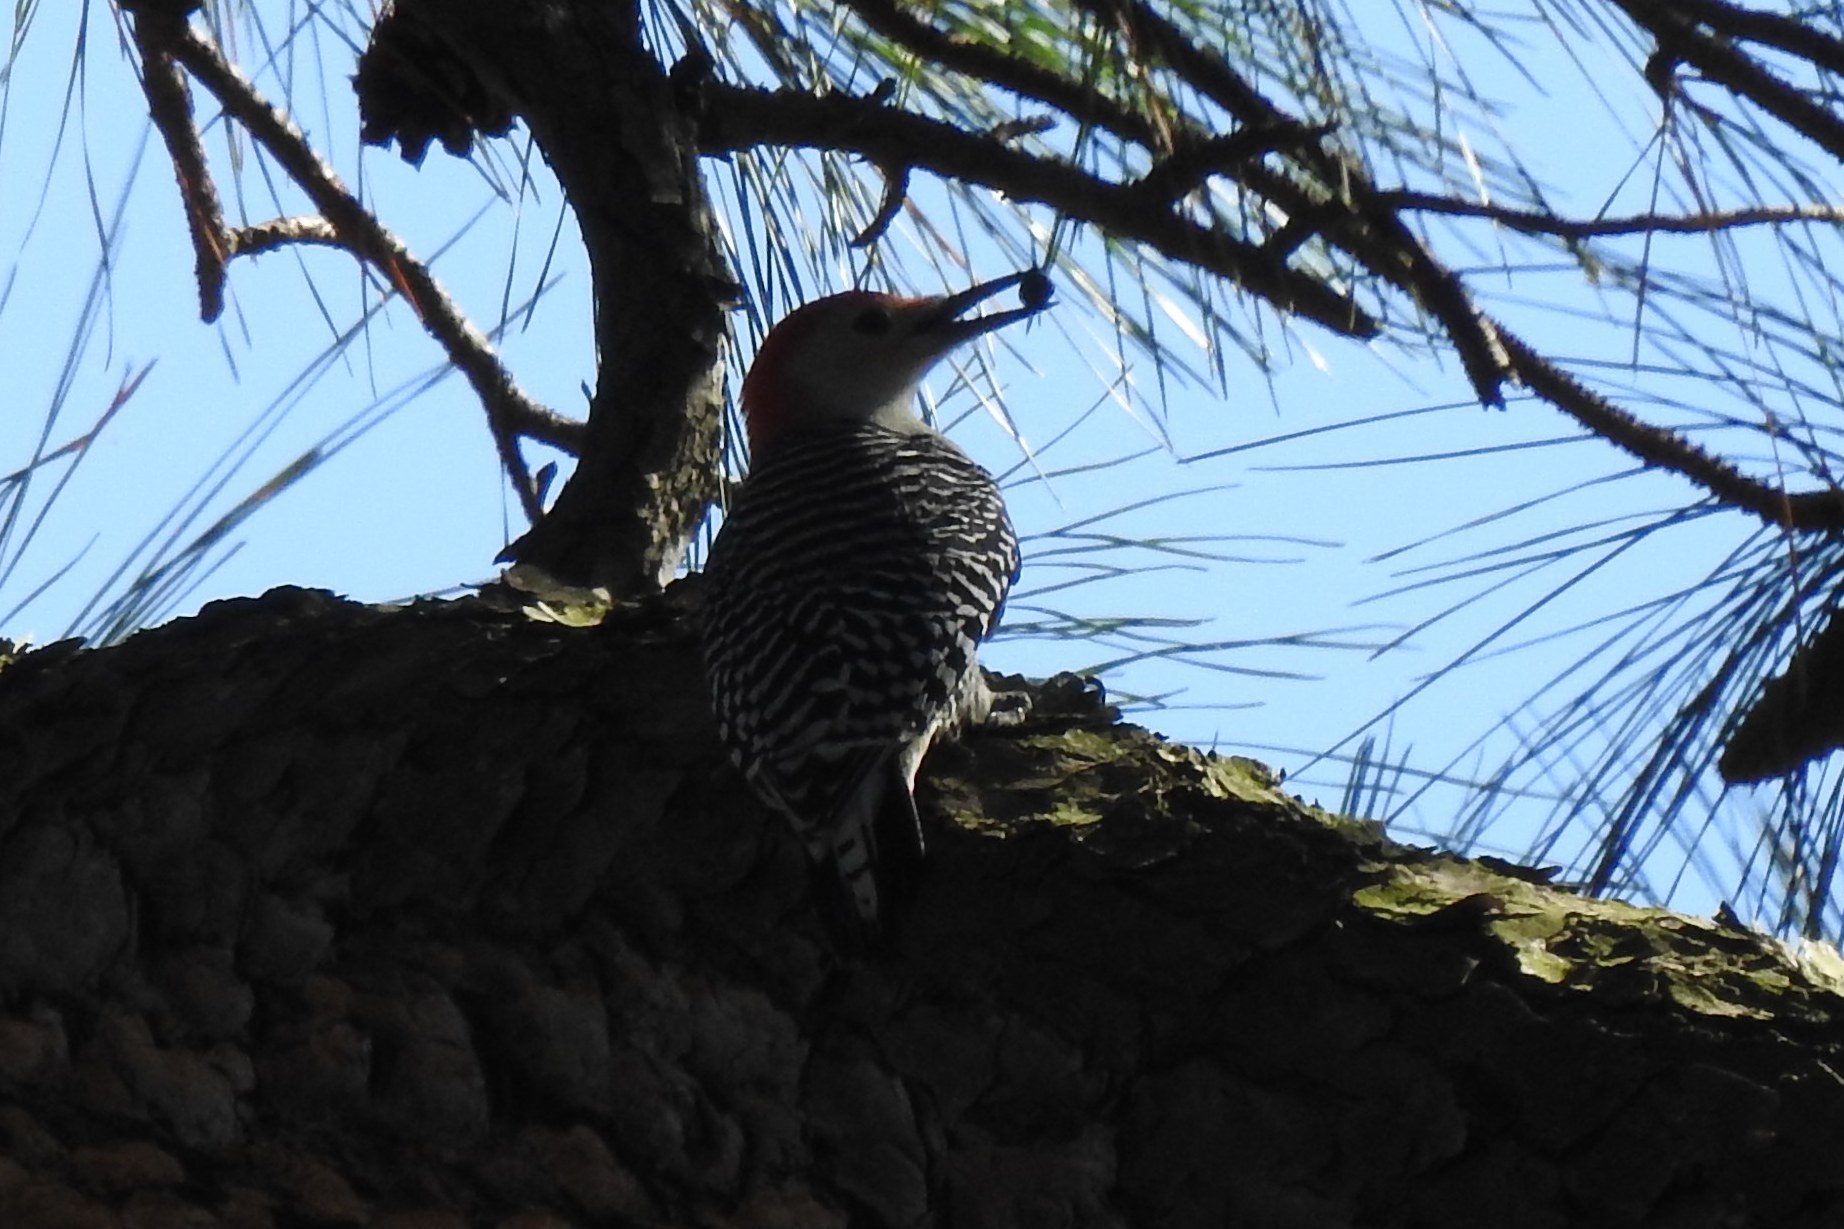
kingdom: Animalia
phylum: Chordata
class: Aves
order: Piciformes
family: Picidae
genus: Melanerpes
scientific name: Melanerpes carolinus
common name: Red-bellied woodpecker
